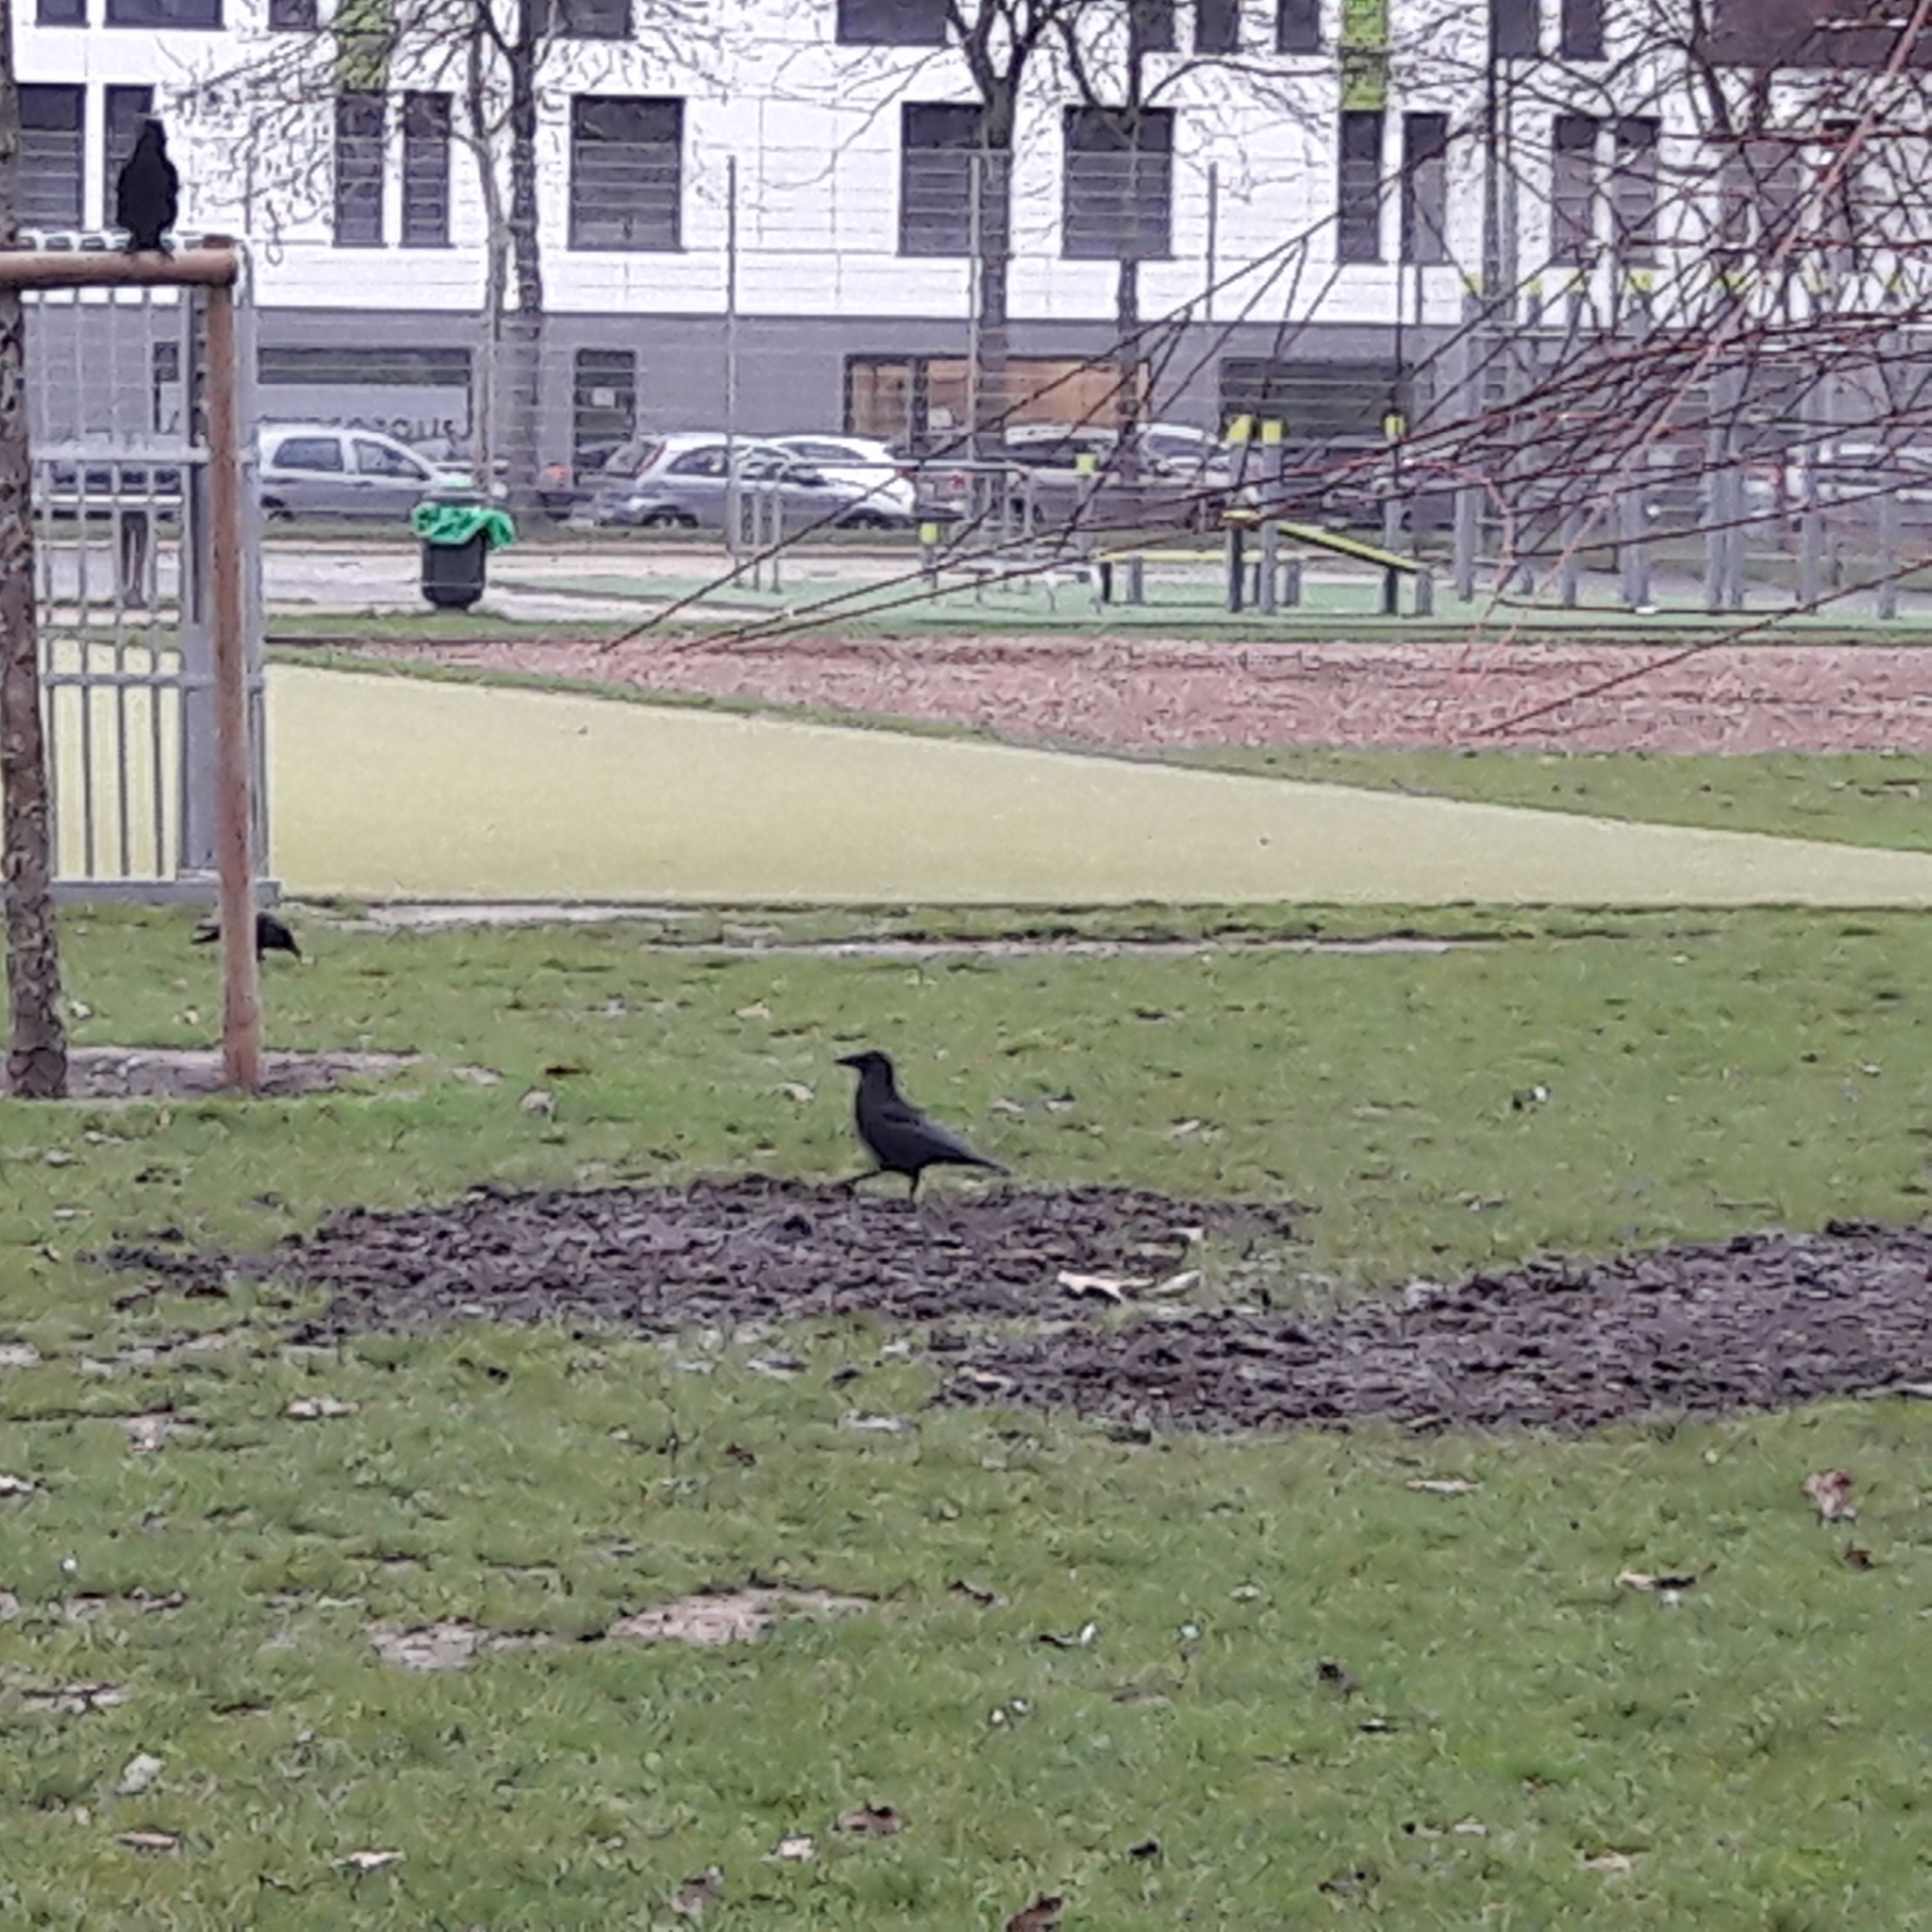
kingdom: Animalia
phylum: Chordata
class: Aves
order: Passeriformes
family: Corvidae
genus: Corvus
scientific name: Corvus corone
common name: Carrion crow
